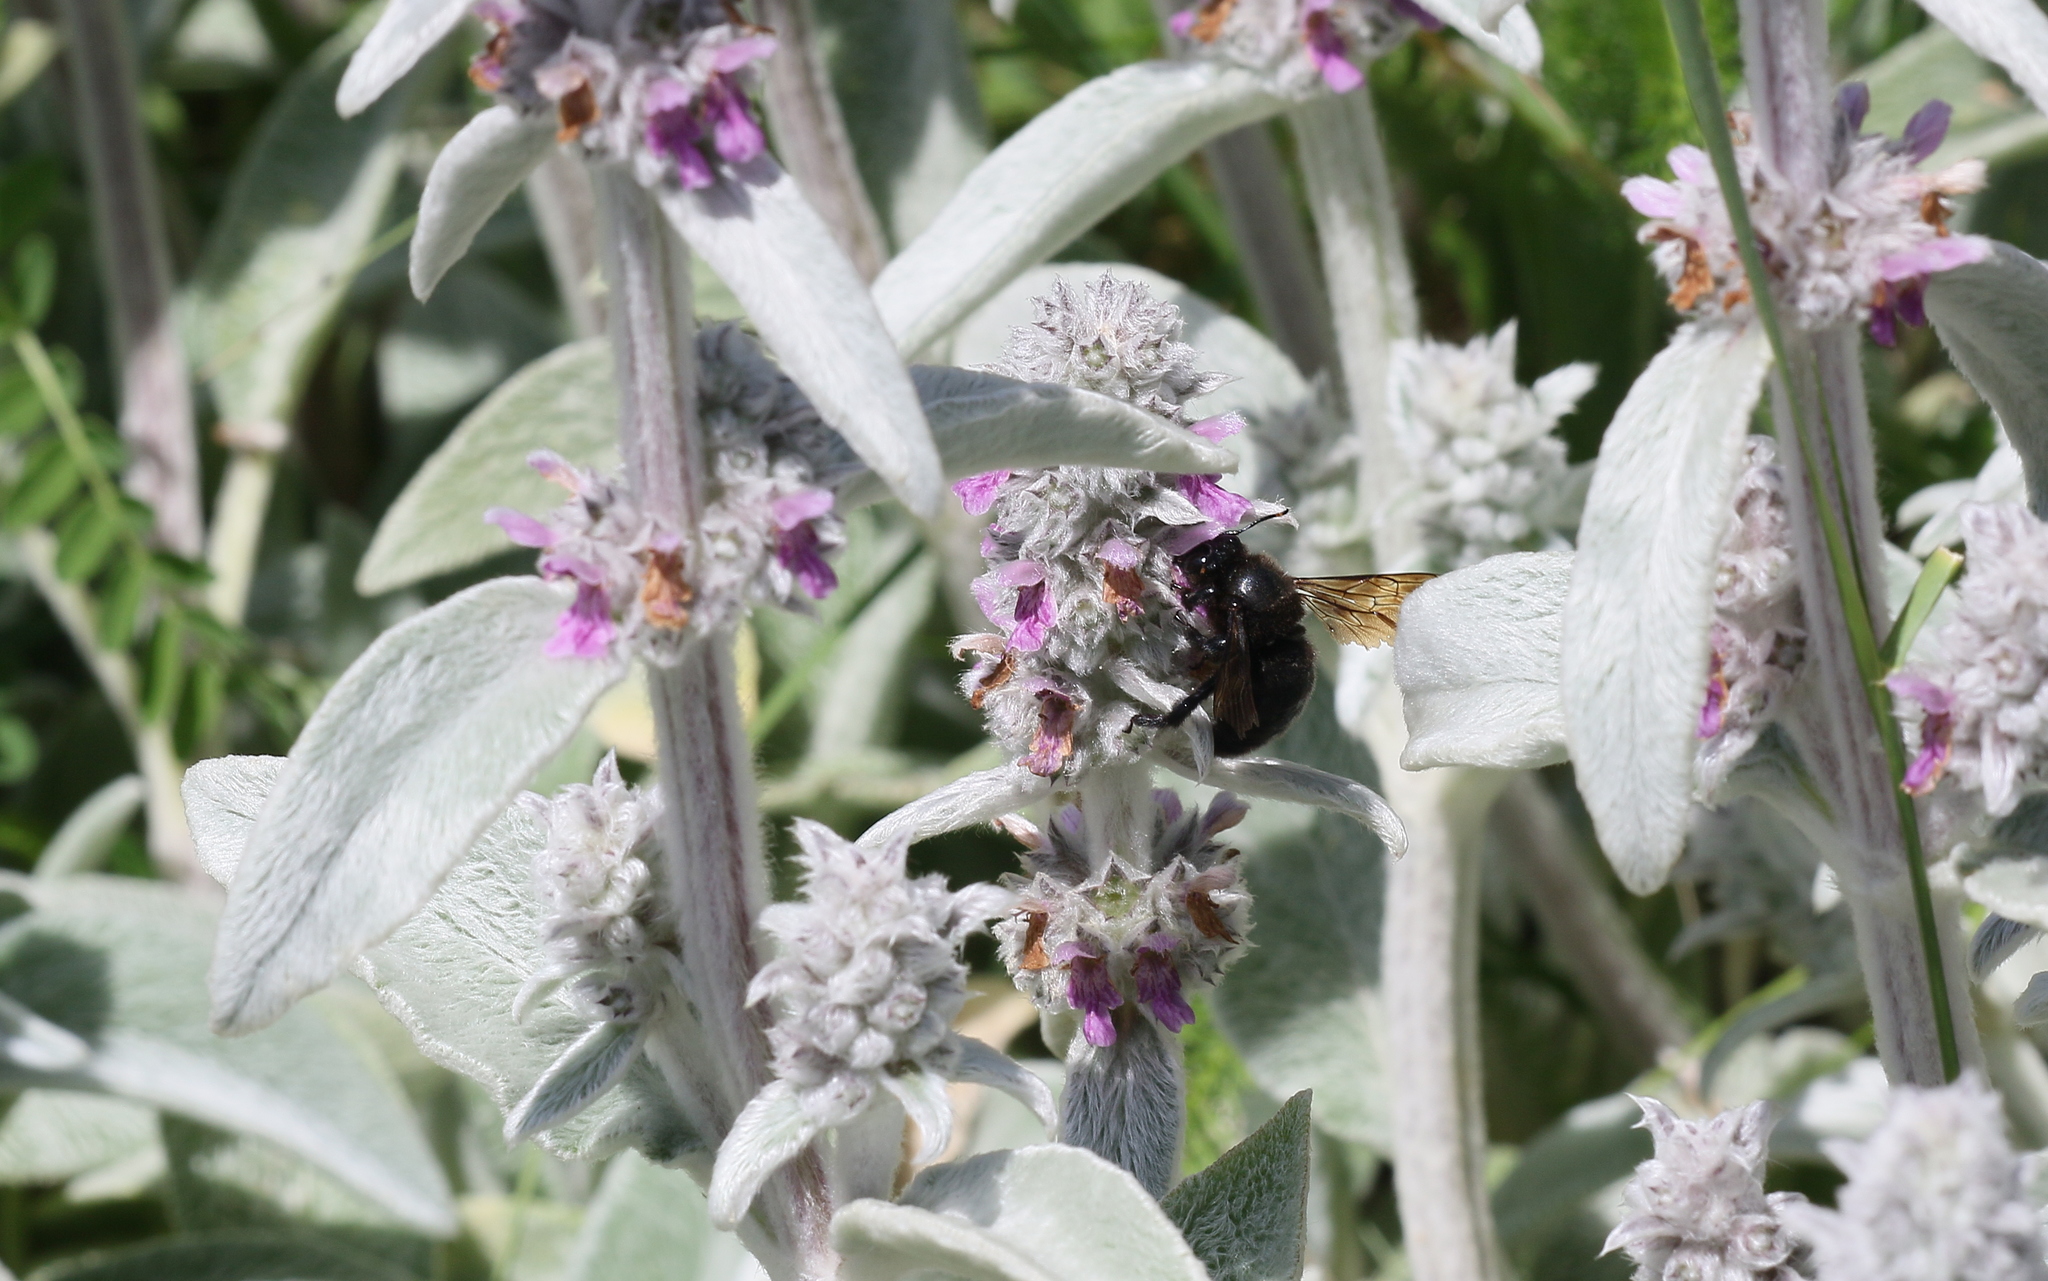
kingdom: Animalia
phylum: Arthropoda
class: Insecta
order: Hymenoptera
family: Apidae
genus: Xylocopa
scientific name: Xylocopa violacea
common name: Violet carpenter bee
